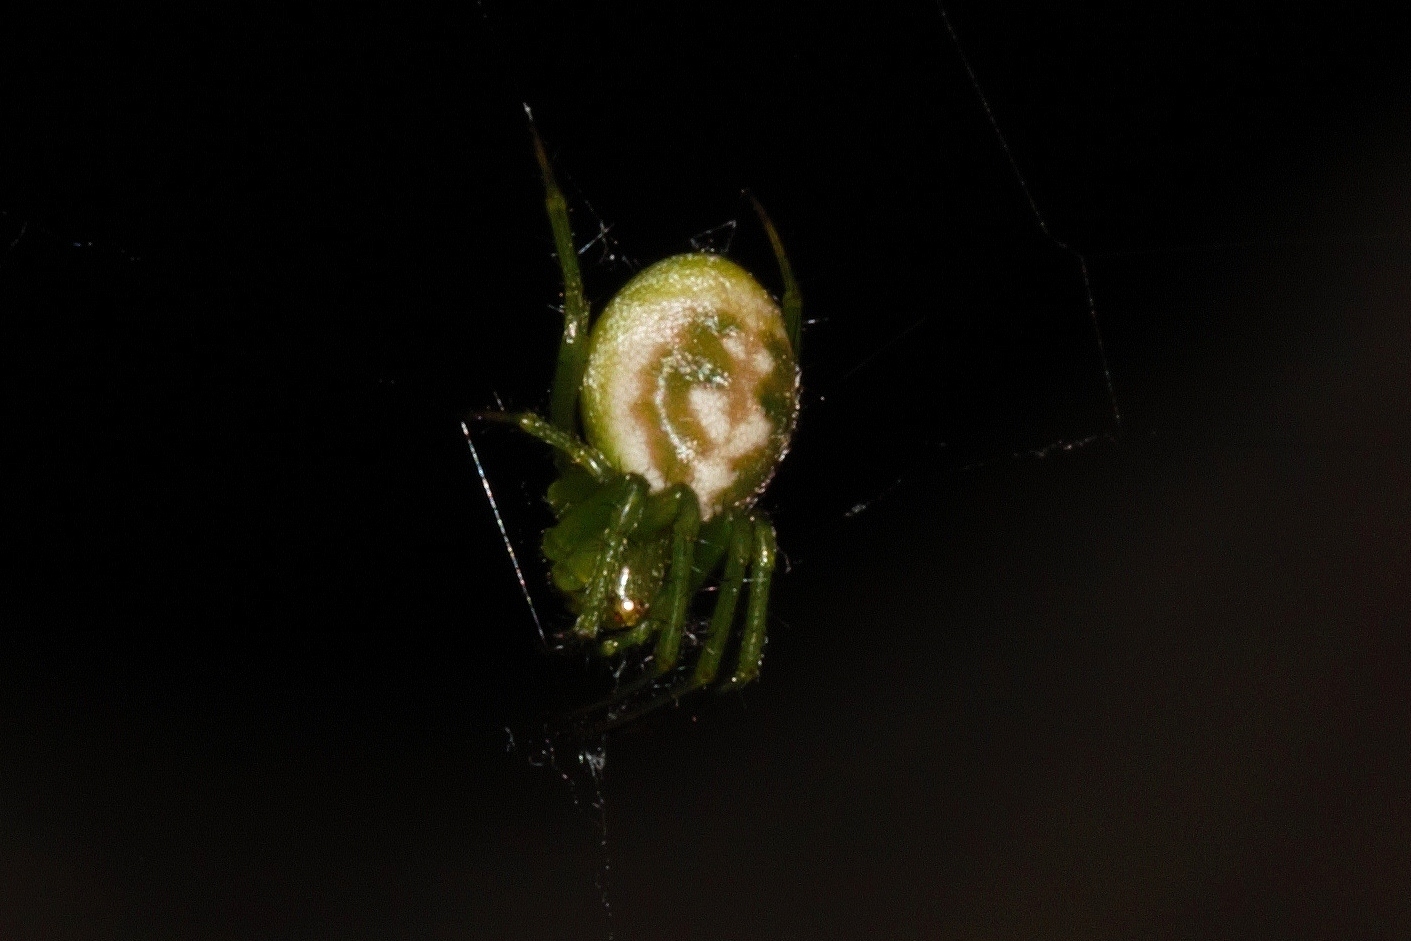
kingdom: Animalia
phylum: Arthropoda
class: Arachnida
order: Araneae
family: Araneidae
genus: Prasonica
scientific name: Prasonica nigrotaeniata
